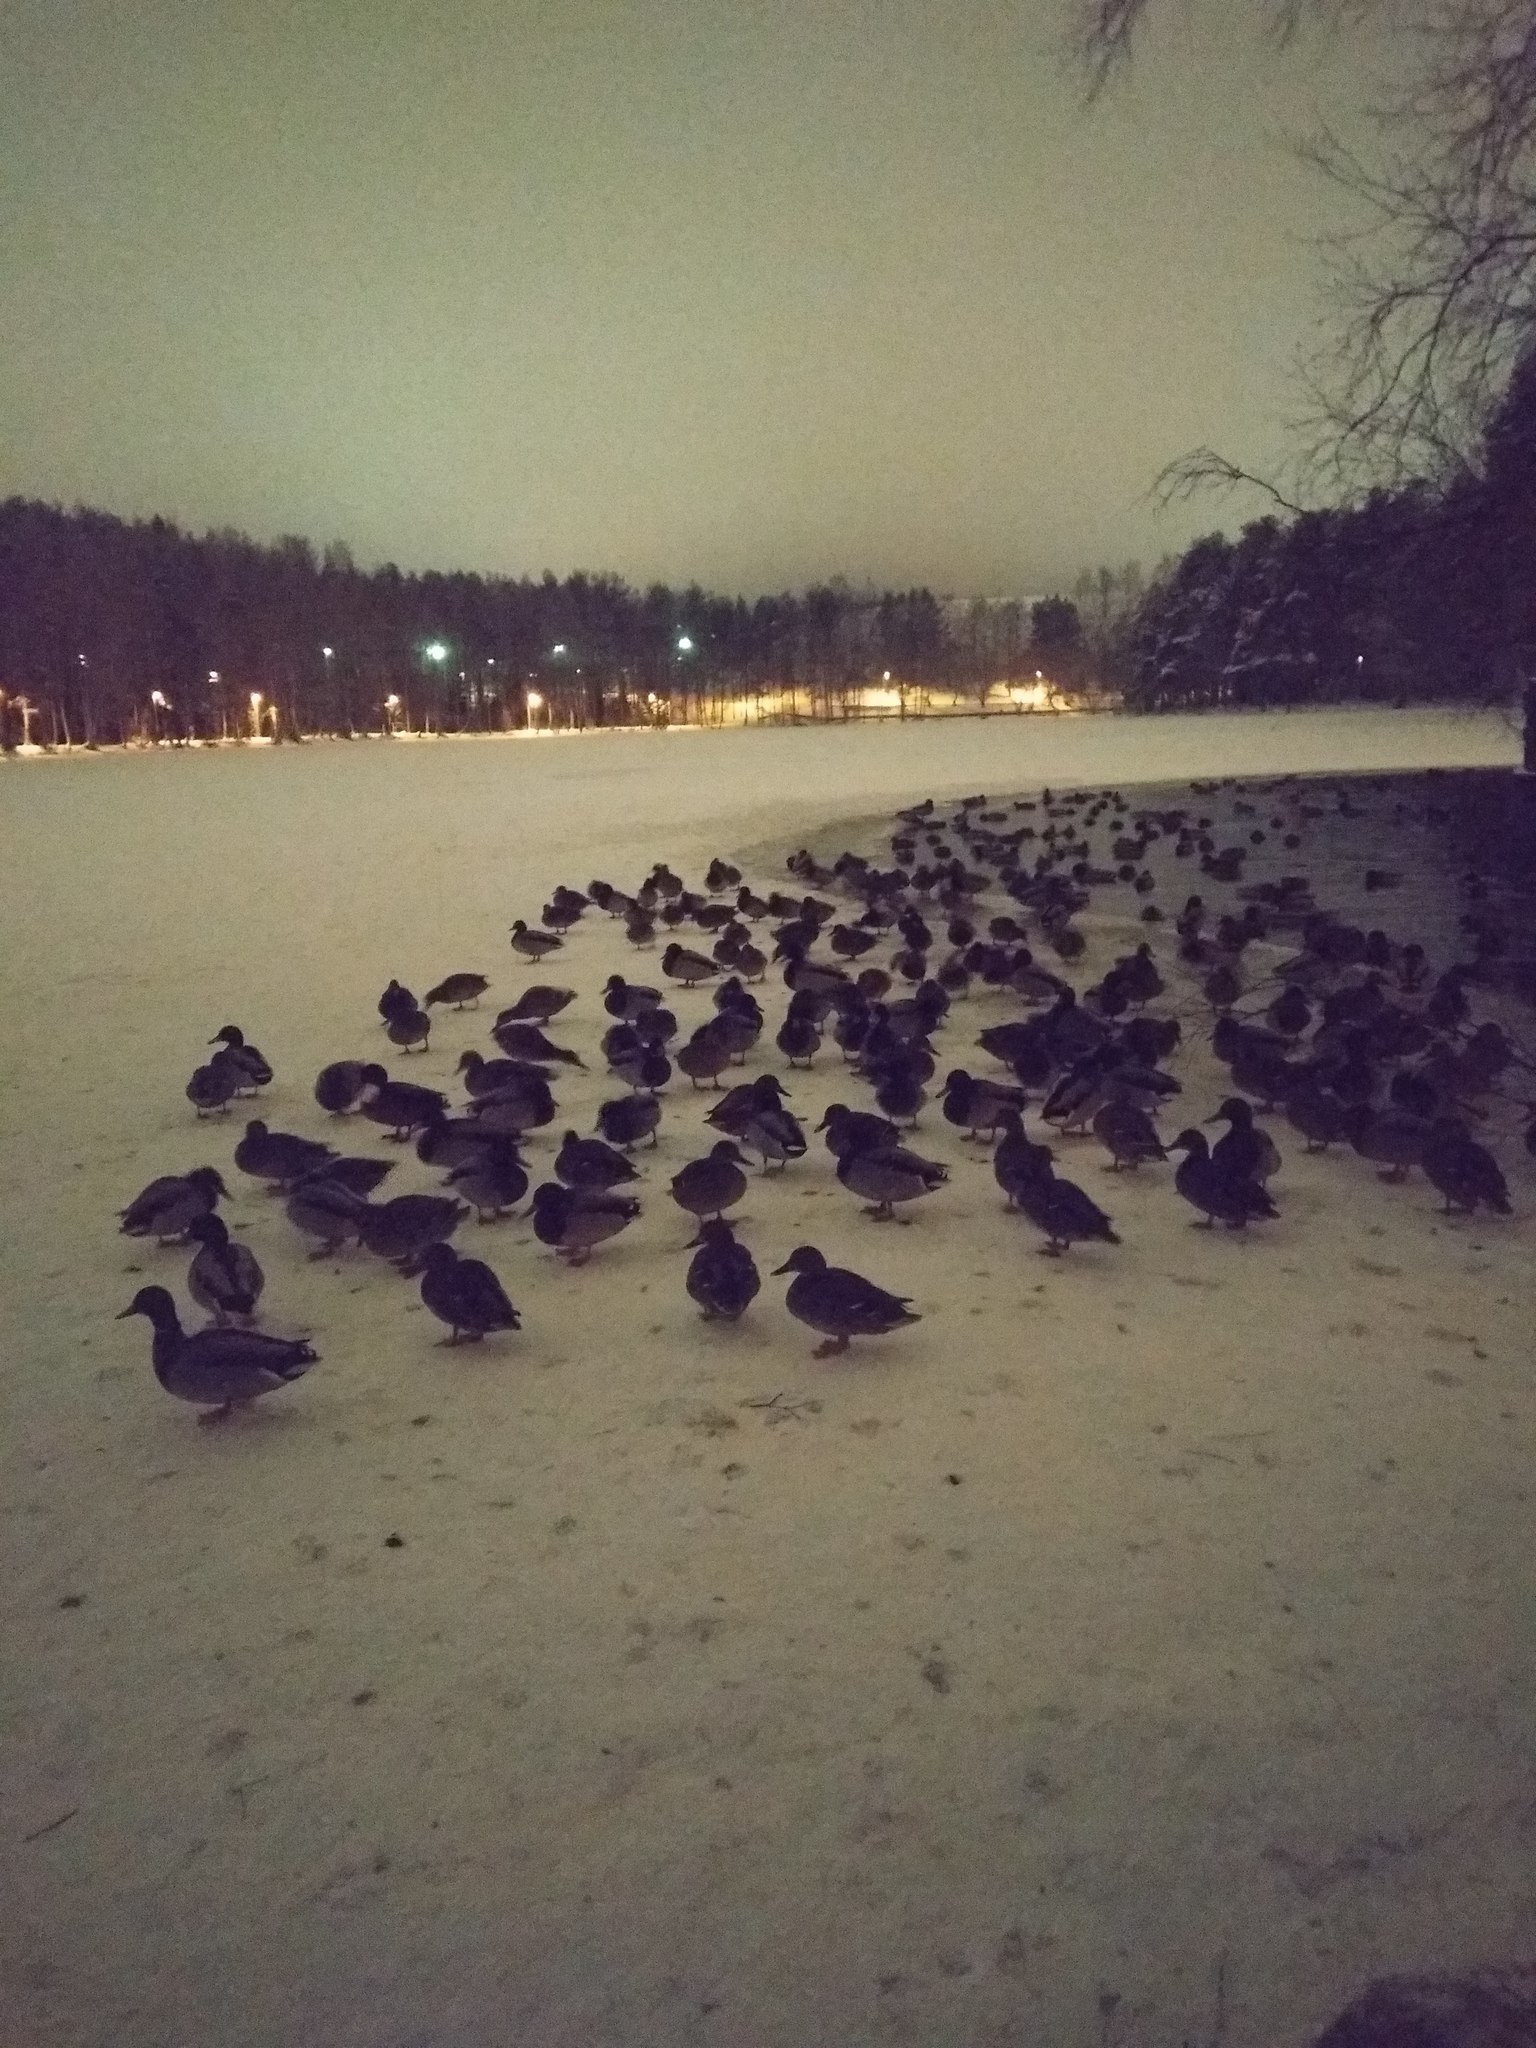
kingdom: Animalia
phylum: Chordata
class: Aves
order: Anseriformes
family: Anatidae
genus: Anas
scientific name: Anas platyrhynchos
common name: Mallard
